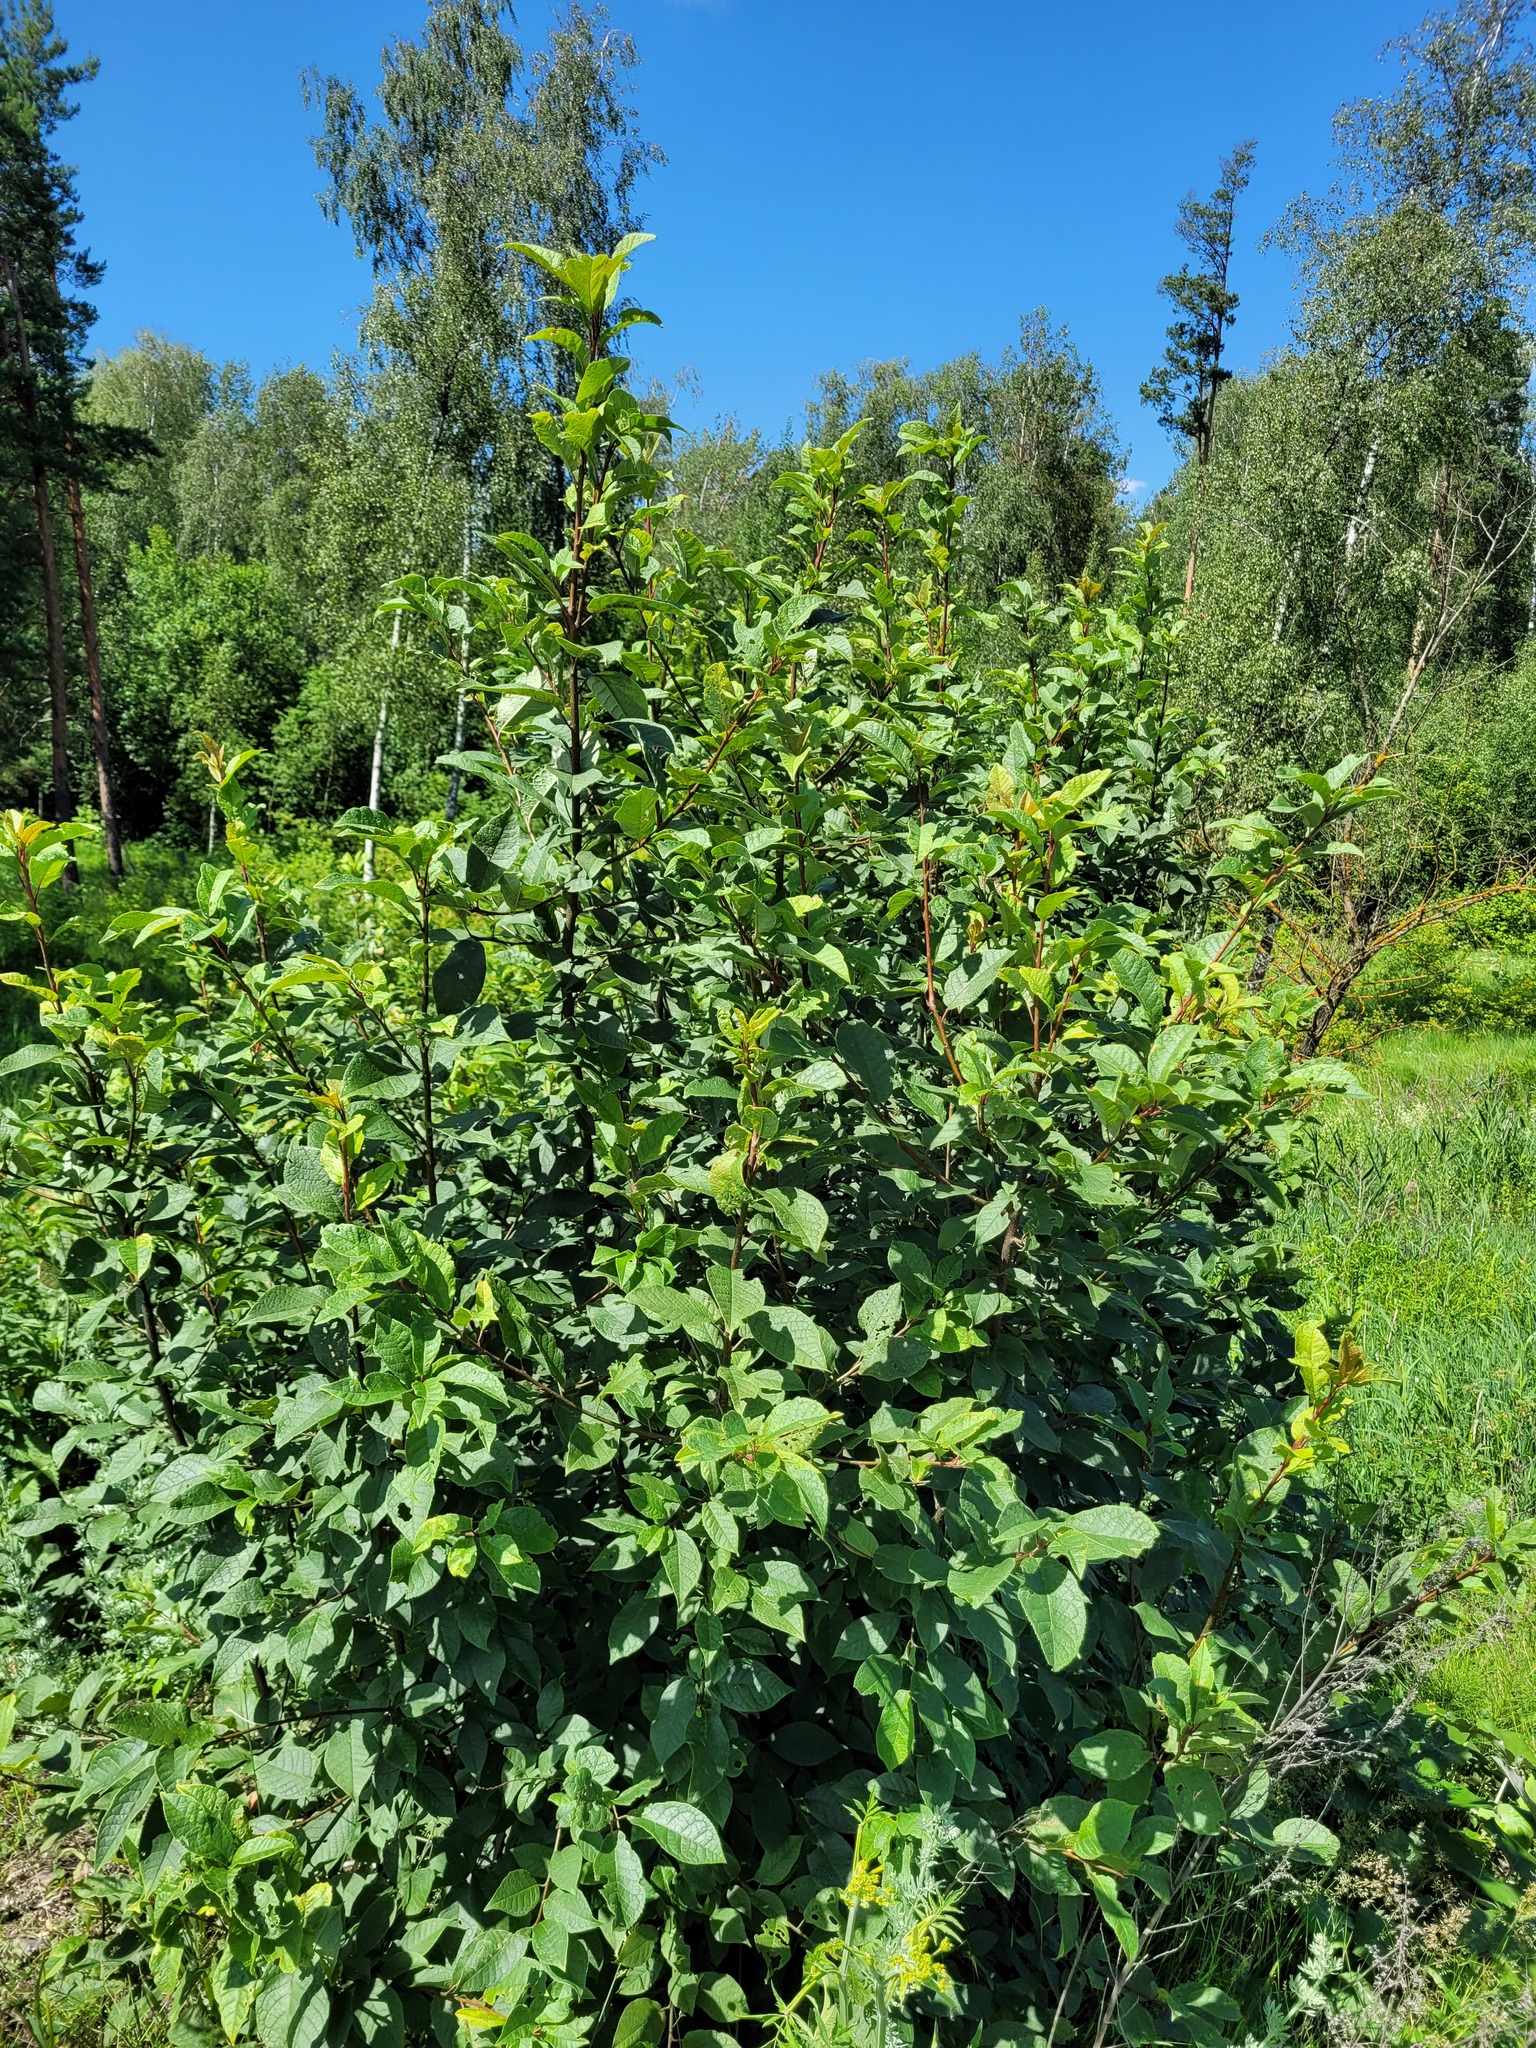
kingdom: Plantae
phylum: Tracheophyta
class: Magnoliopsida
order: Rosales
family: Rosaceae
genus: Prunus
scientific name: Prunus padus
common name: Bird cherry
